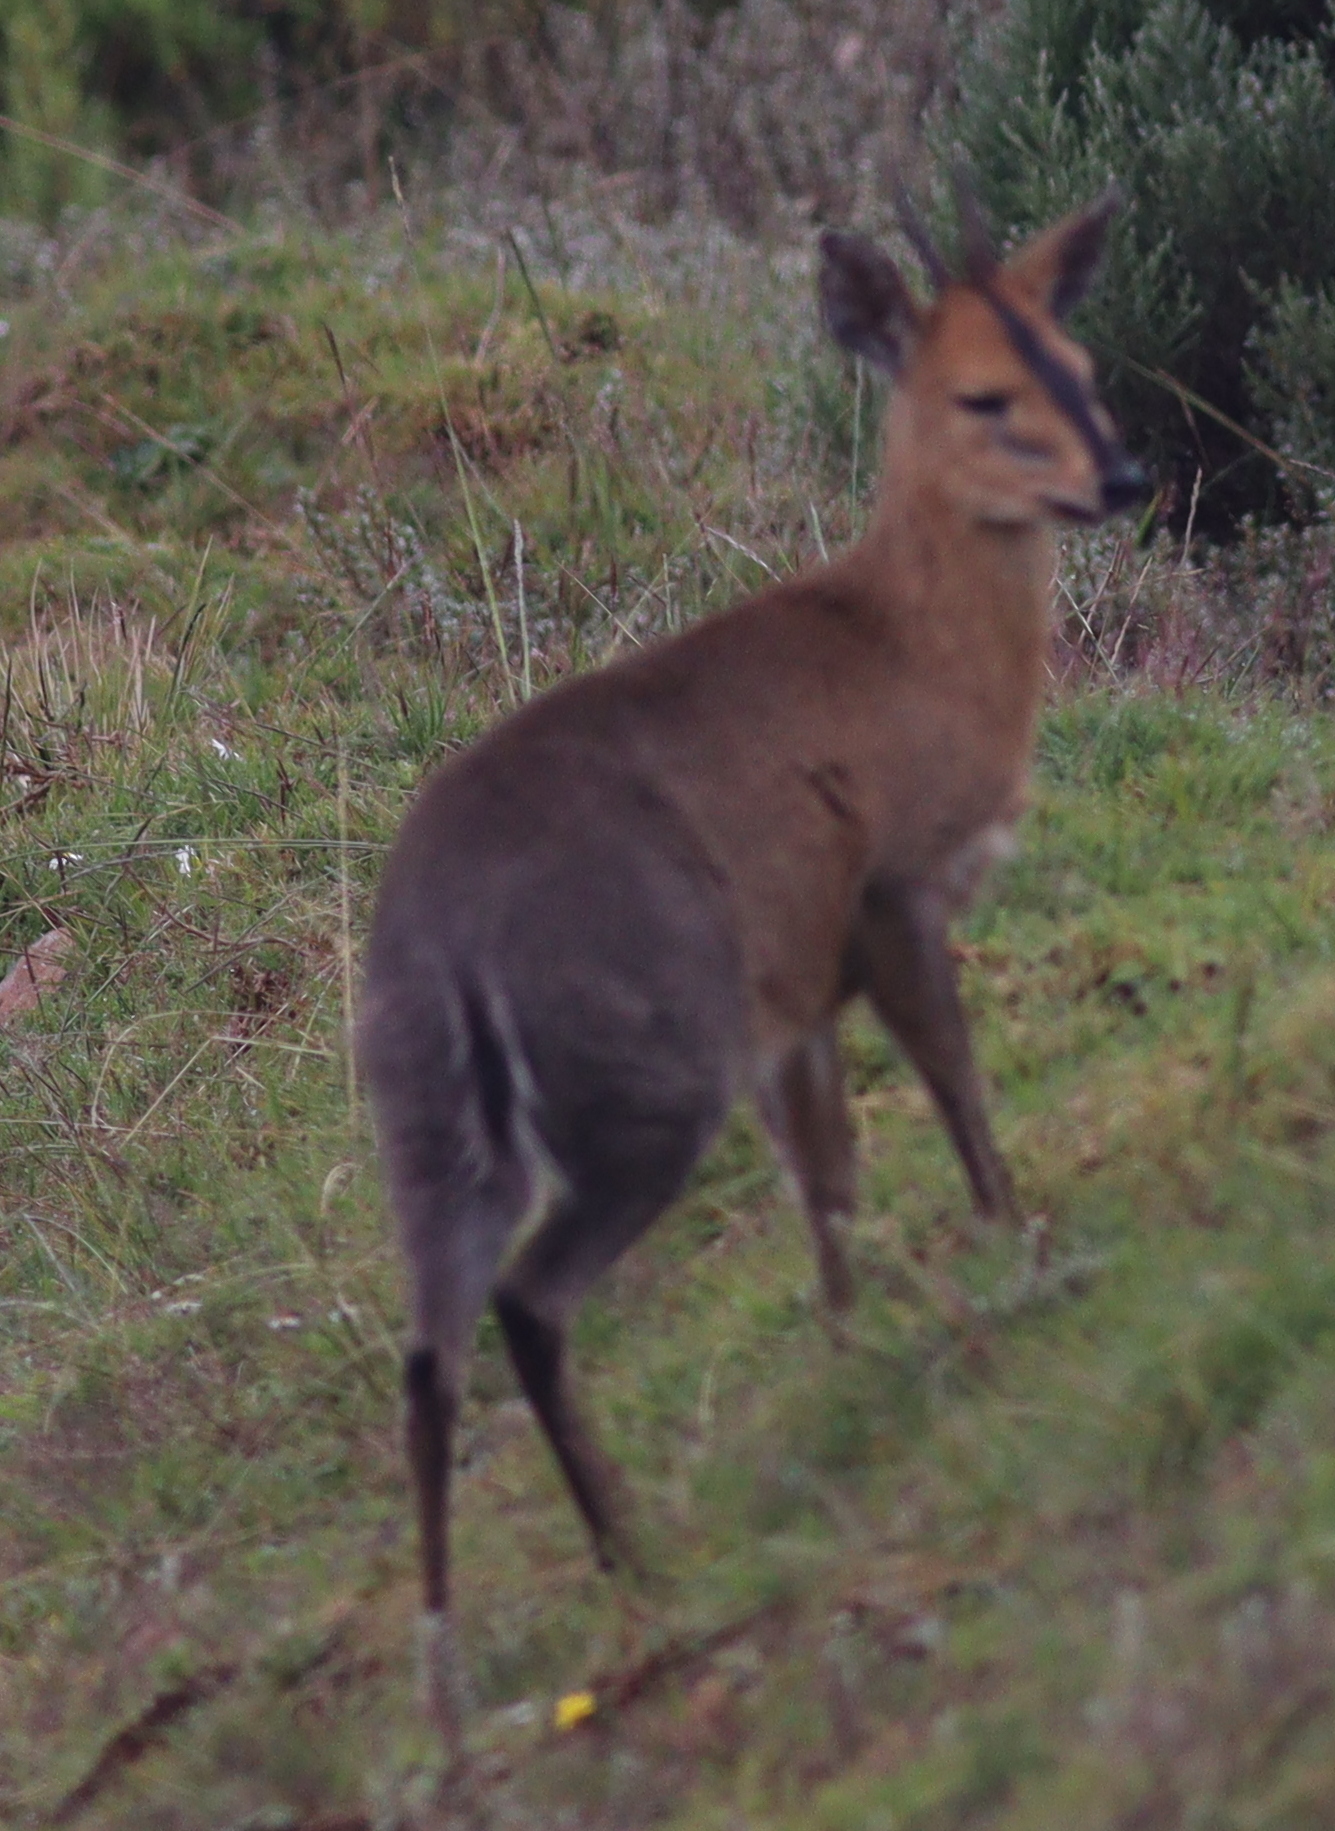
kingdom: Animalia
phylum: Chordata
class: Mammalia
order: Artiodactyla
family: Bovidae
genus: Sylvicapra
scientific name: Sylvicapra grimmia
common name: Bush duiker
